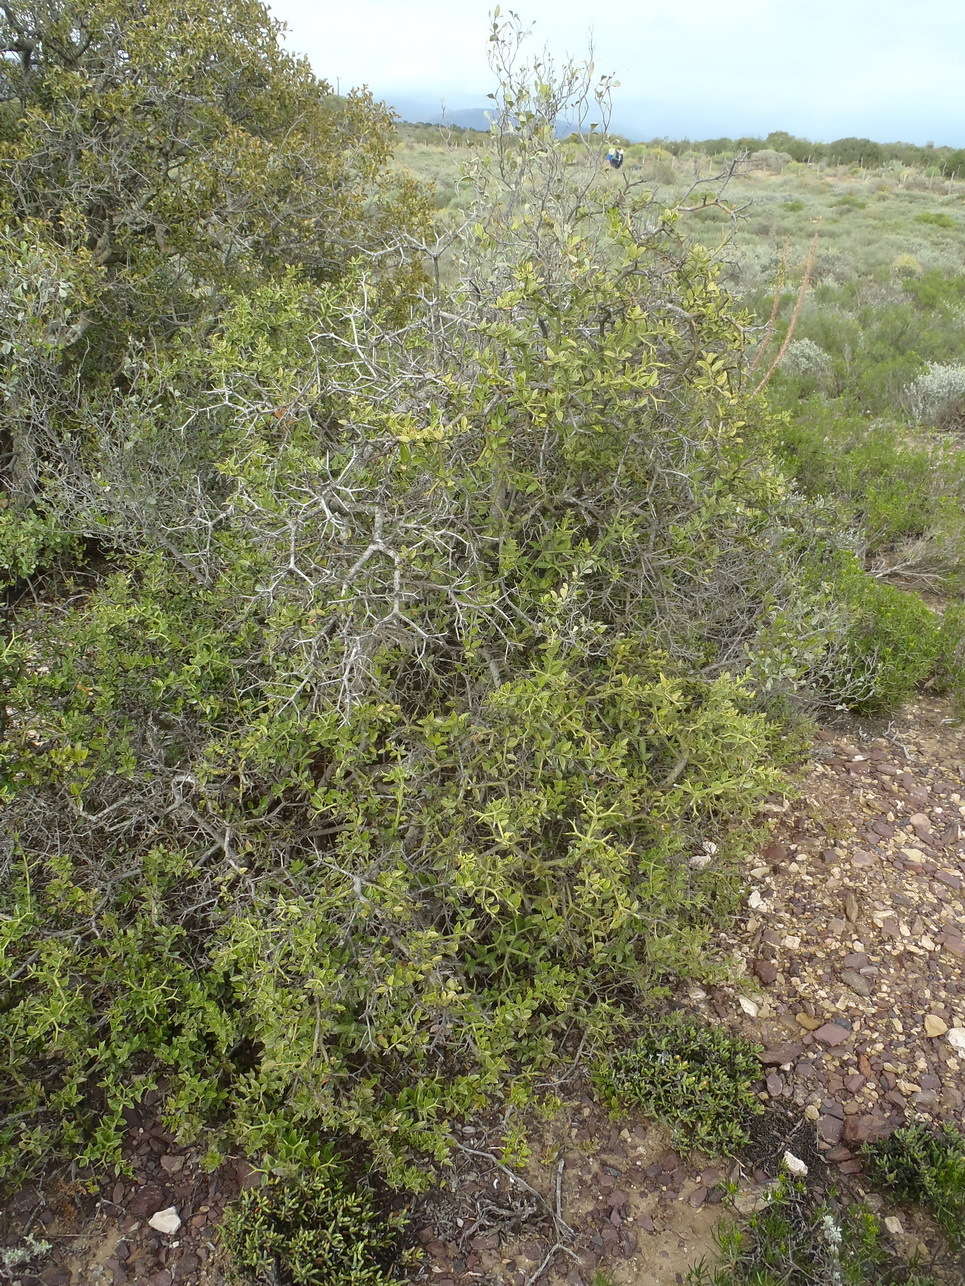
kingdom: Plantae
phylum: Tracheophyta
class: Magnoliopsida
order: Gentianales
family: Apocynaceae
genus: Carissa
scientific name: Carissa haematocarpa
